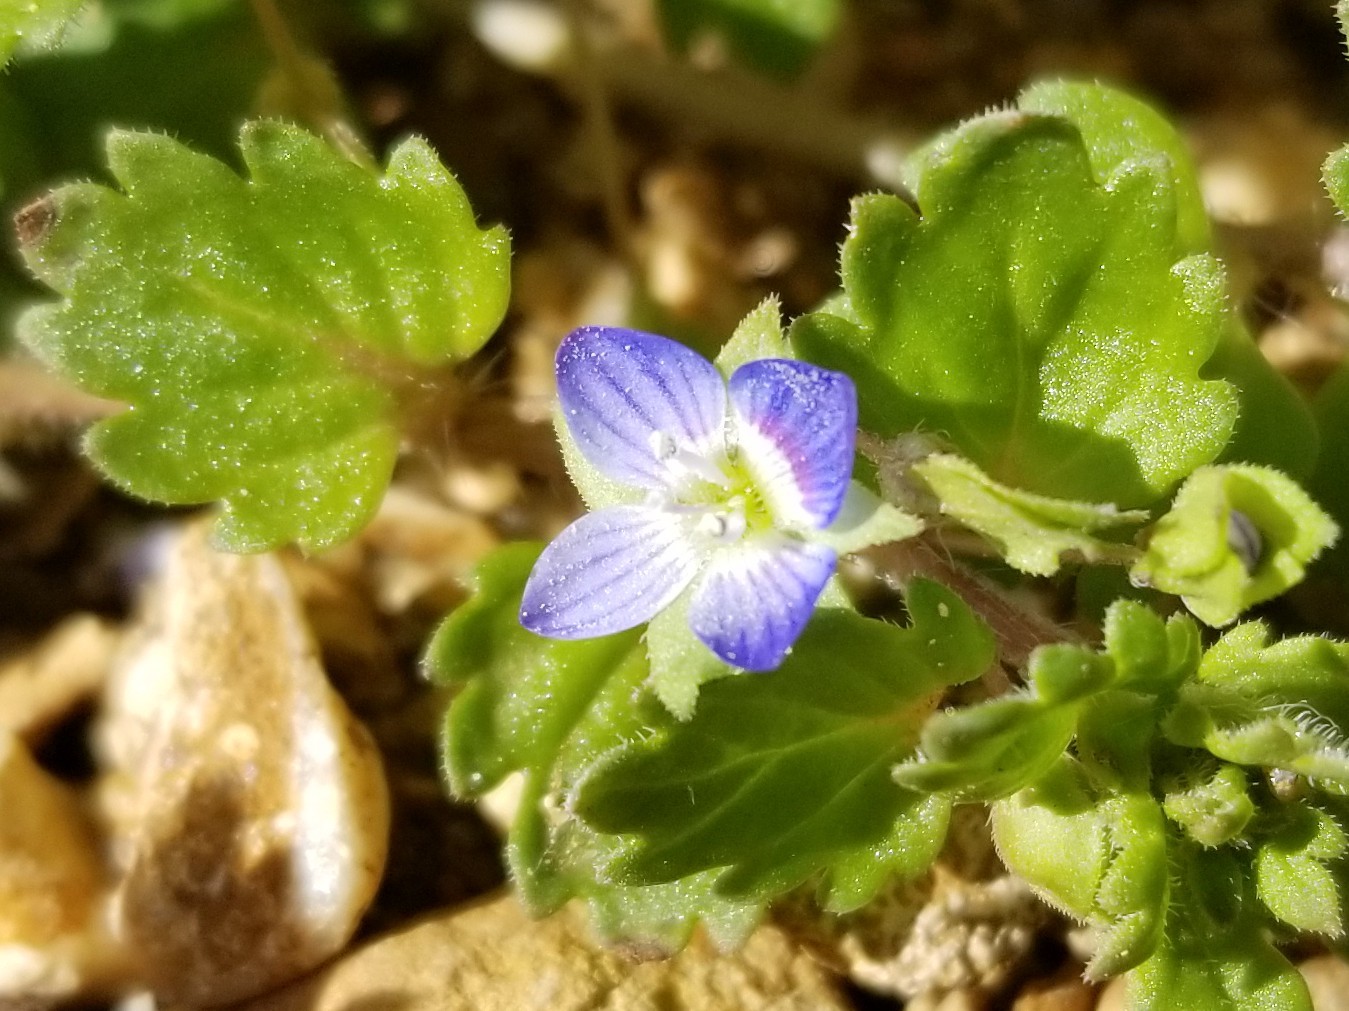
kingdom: Plantae
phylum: Tracheophyta
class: Magnoliopsida
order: Lamiales
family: Plantaginaceae
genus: Veronica
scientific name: Veronica persica
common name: Common field-speedwell
